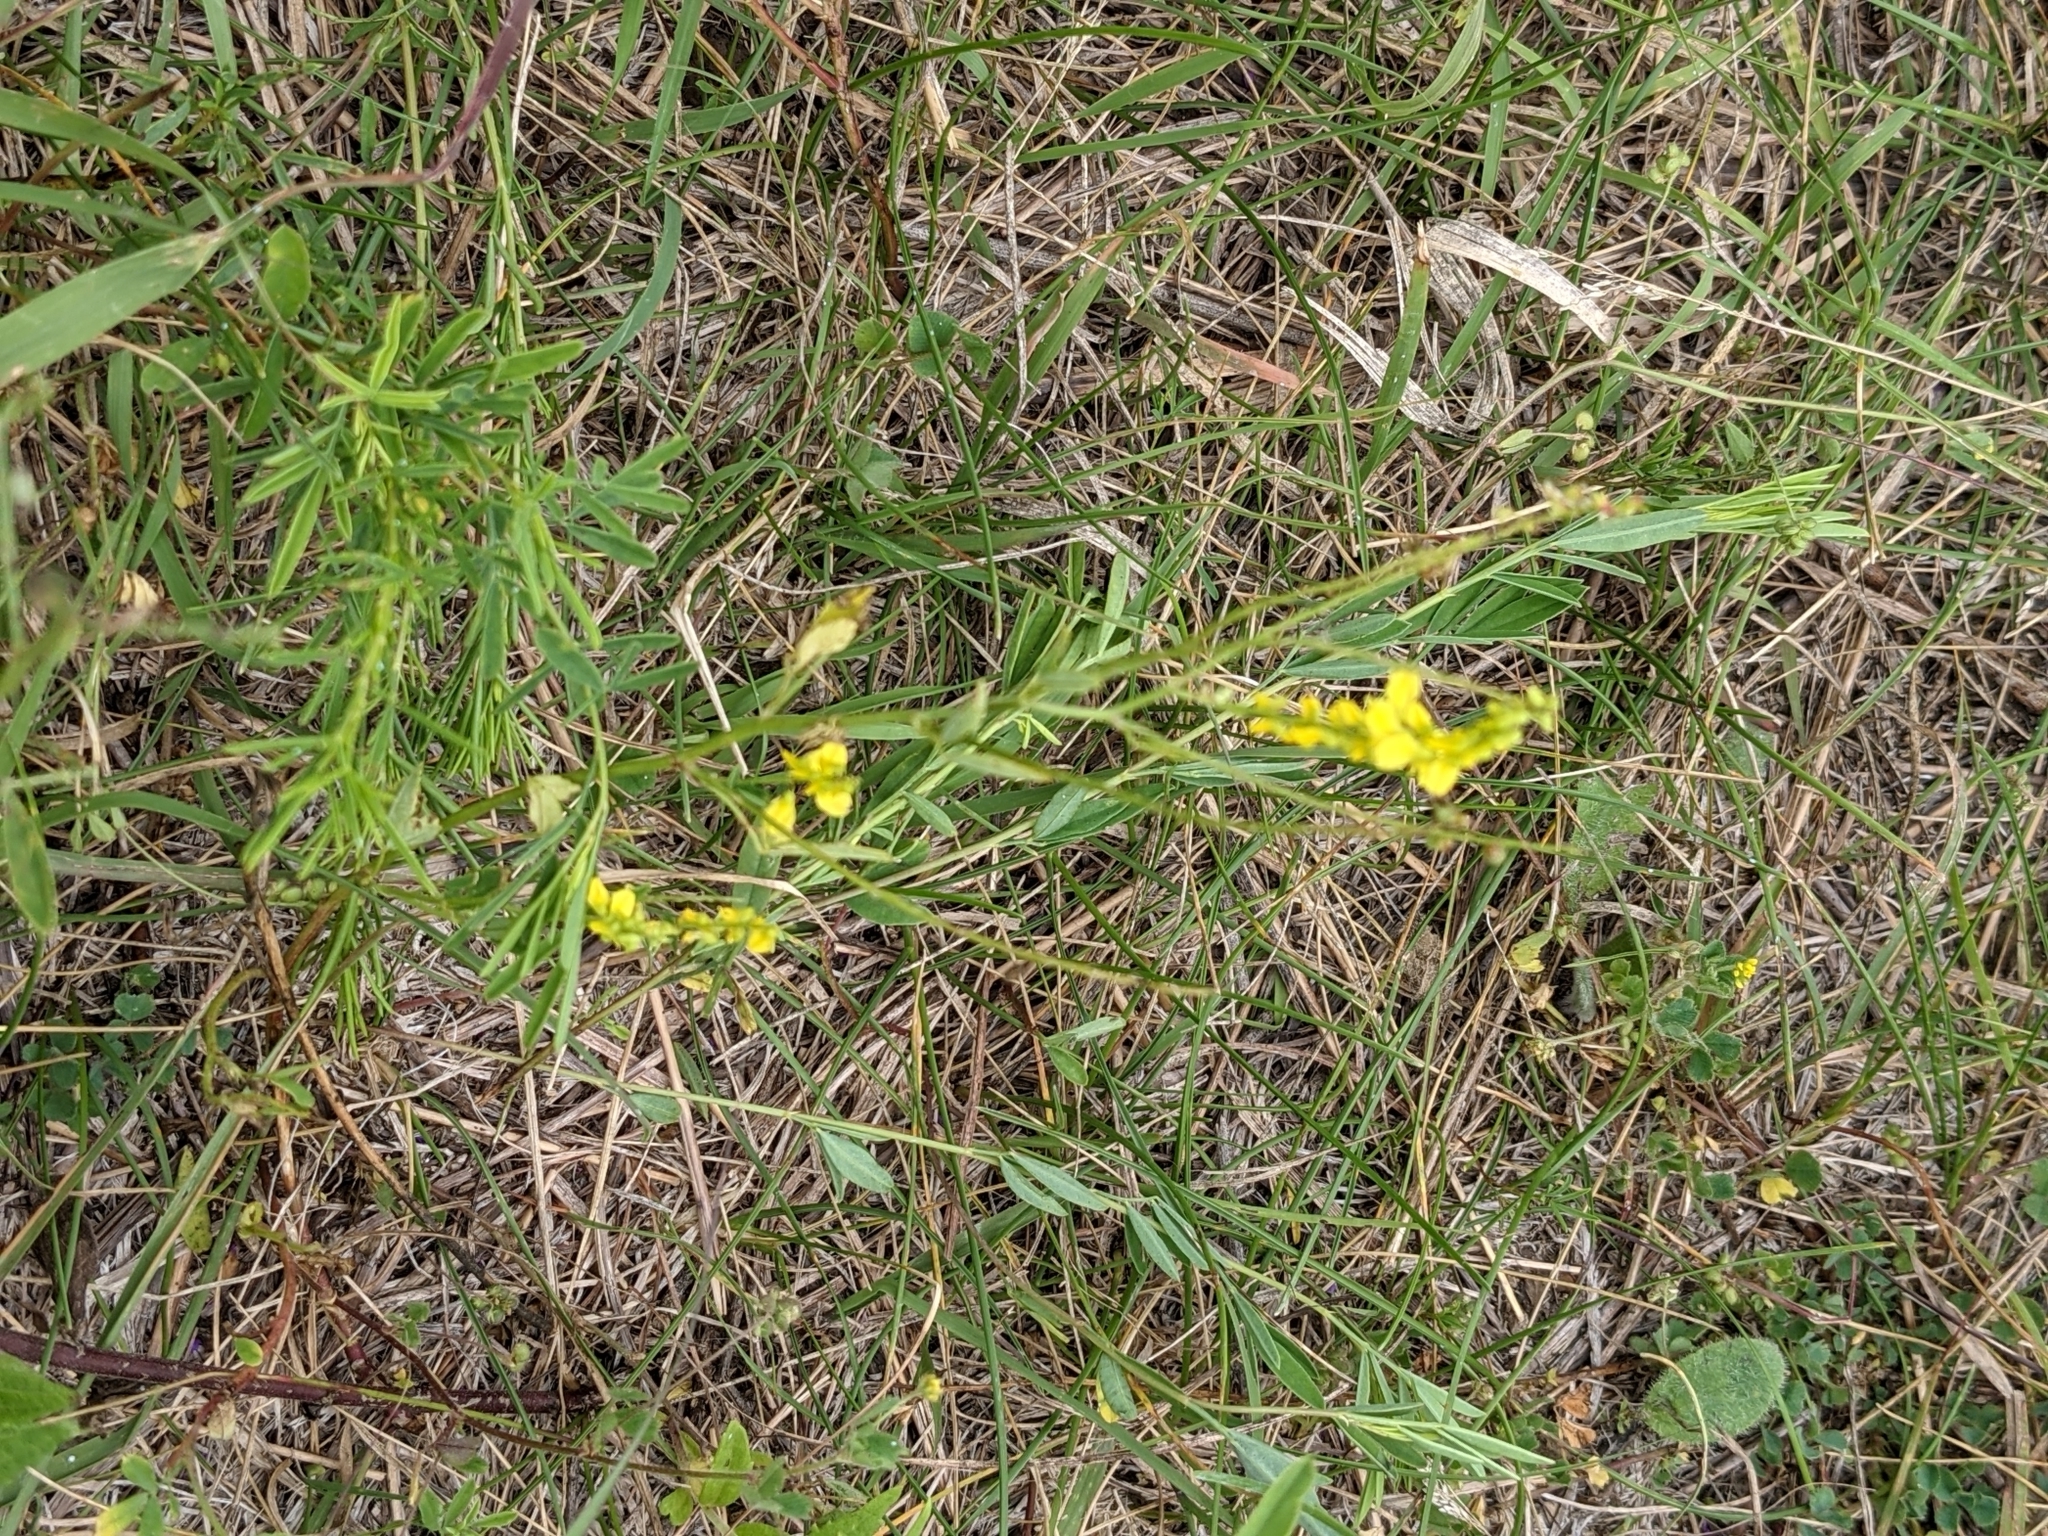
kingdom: Plantae
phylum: Tracheophyta
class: Magnoliopsida
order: Fabales
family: Fabaceae
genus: Melilotus
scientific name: Melilotus officinalis
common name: Sweetclover
